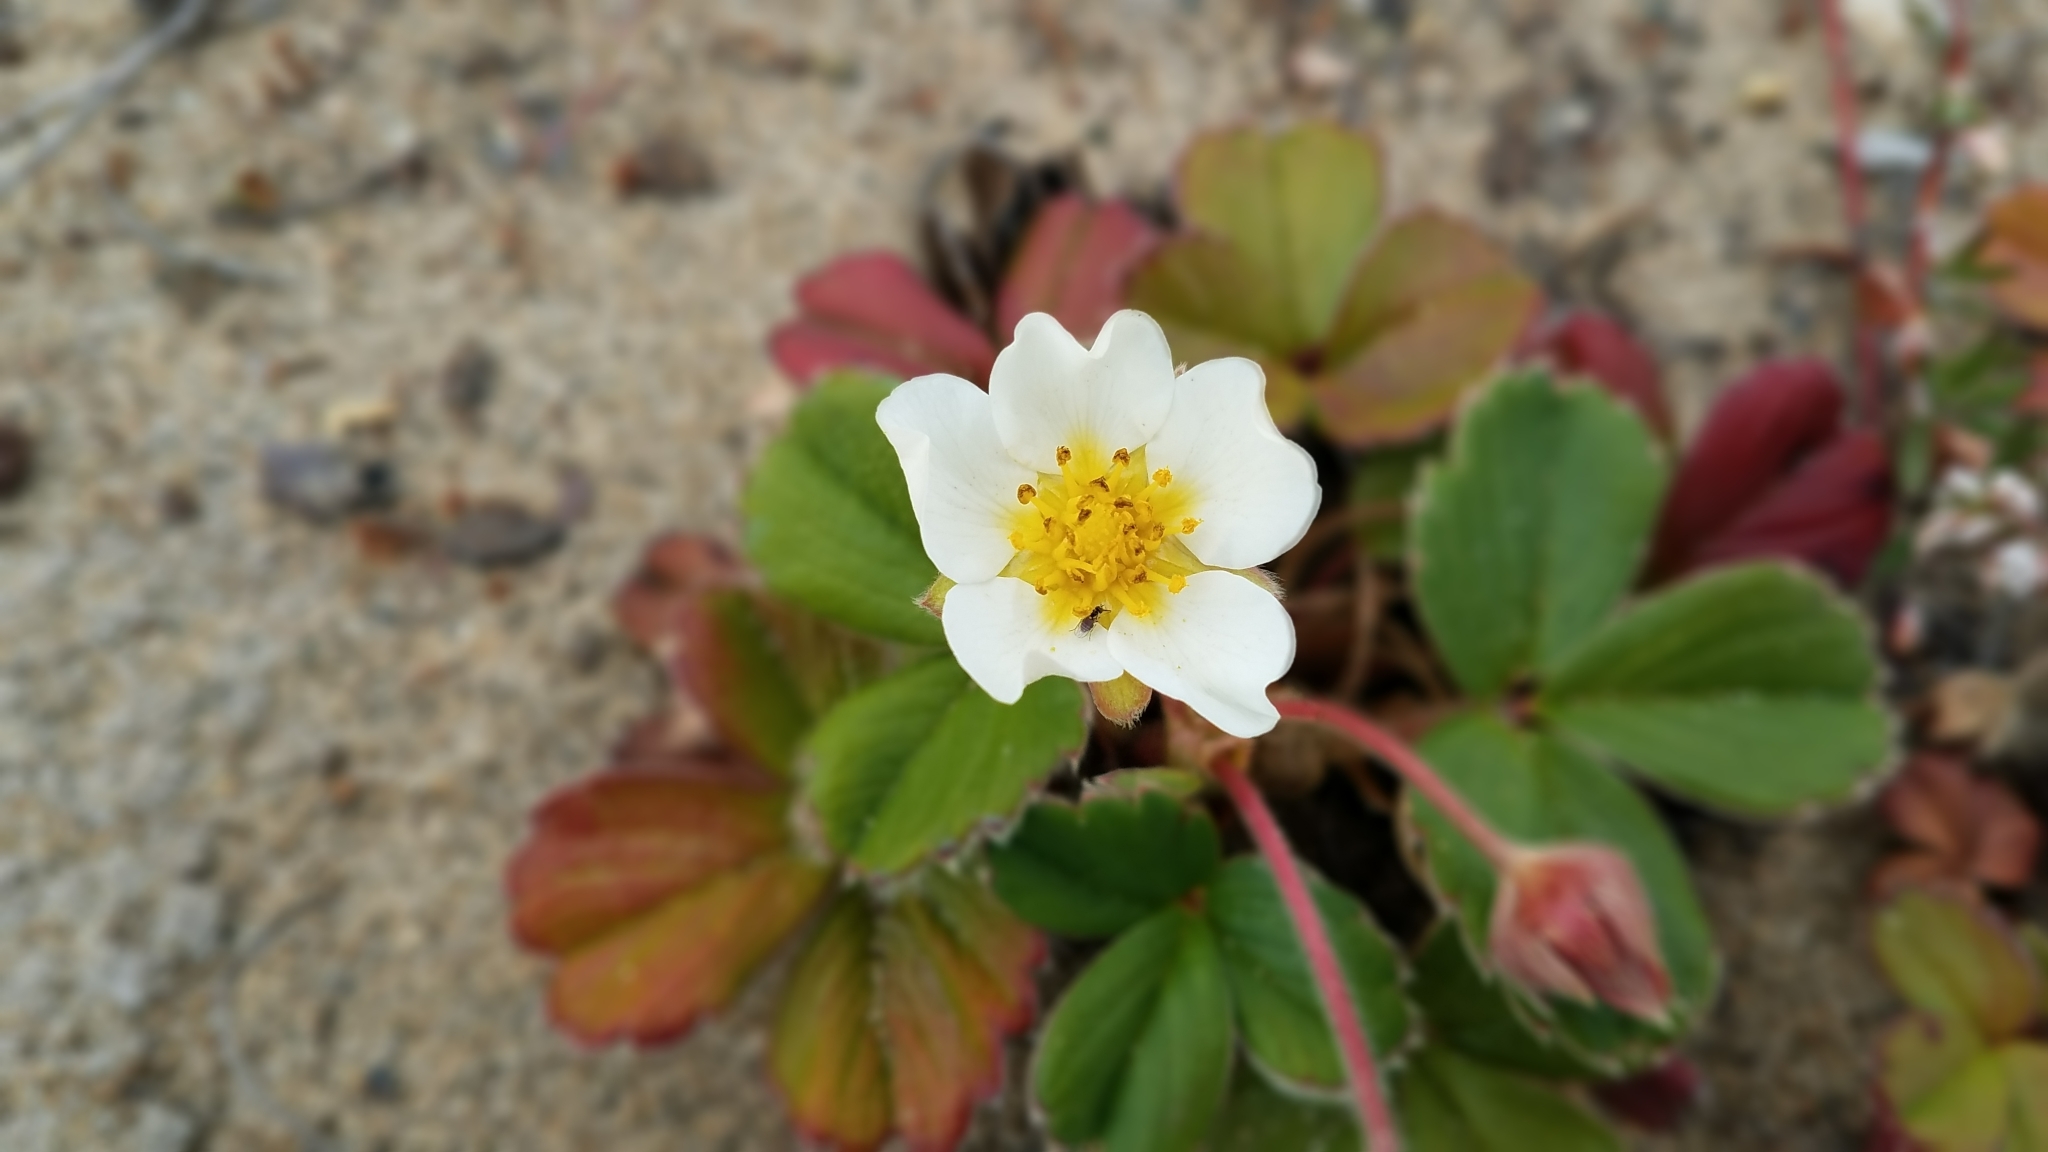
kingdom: Plantae
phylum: Tracheophyta
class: Magnoliopsida
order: Rosales
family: Rosaceae
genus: Fragaria
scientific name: Fragaria chiloensis
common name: Beach strawberry
